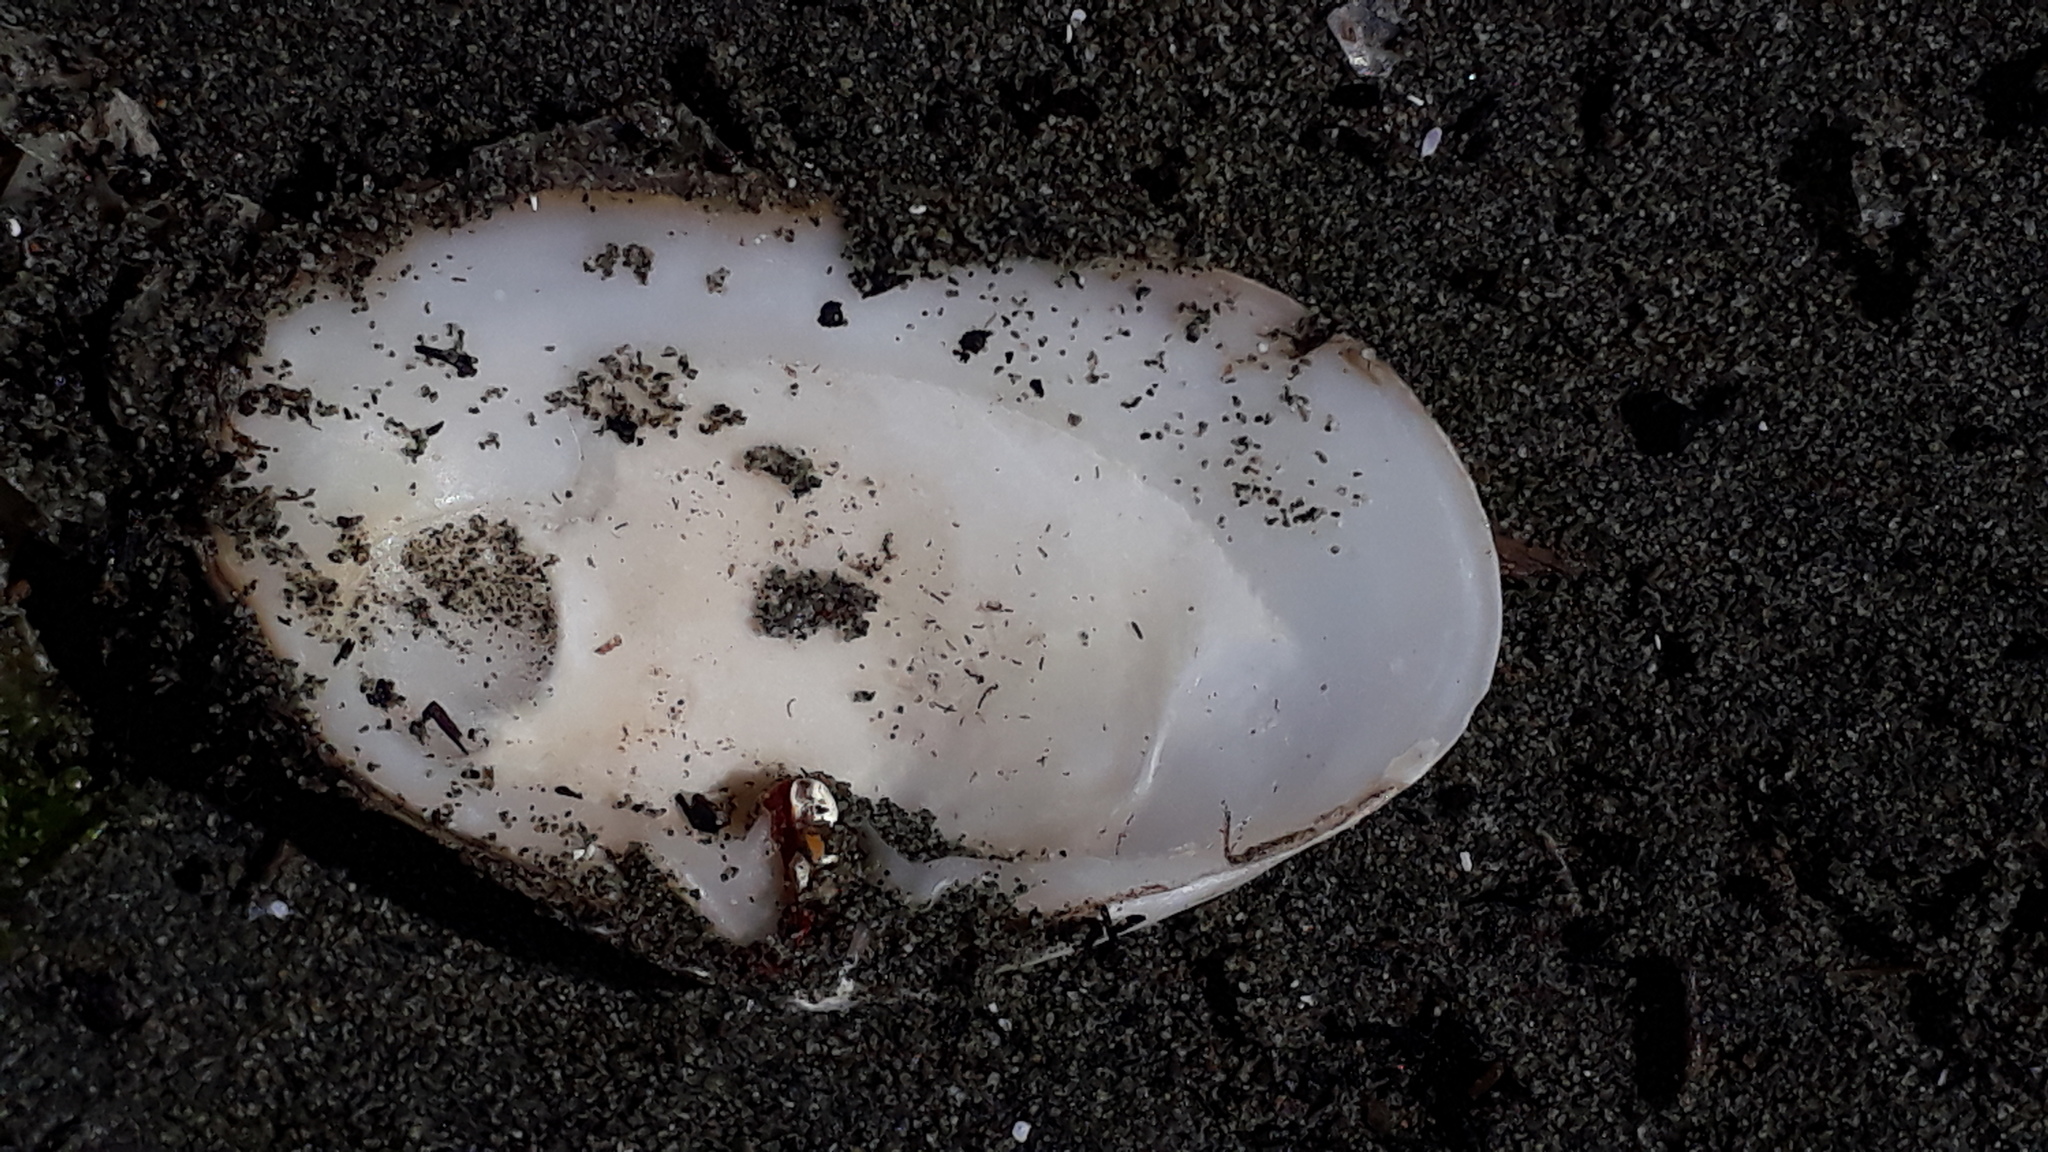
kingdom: Animalia
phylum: Mollusca
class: Bivalvia
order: Venerida
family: Mesodesmatidae
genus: Paphies
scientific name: Paphies australis
